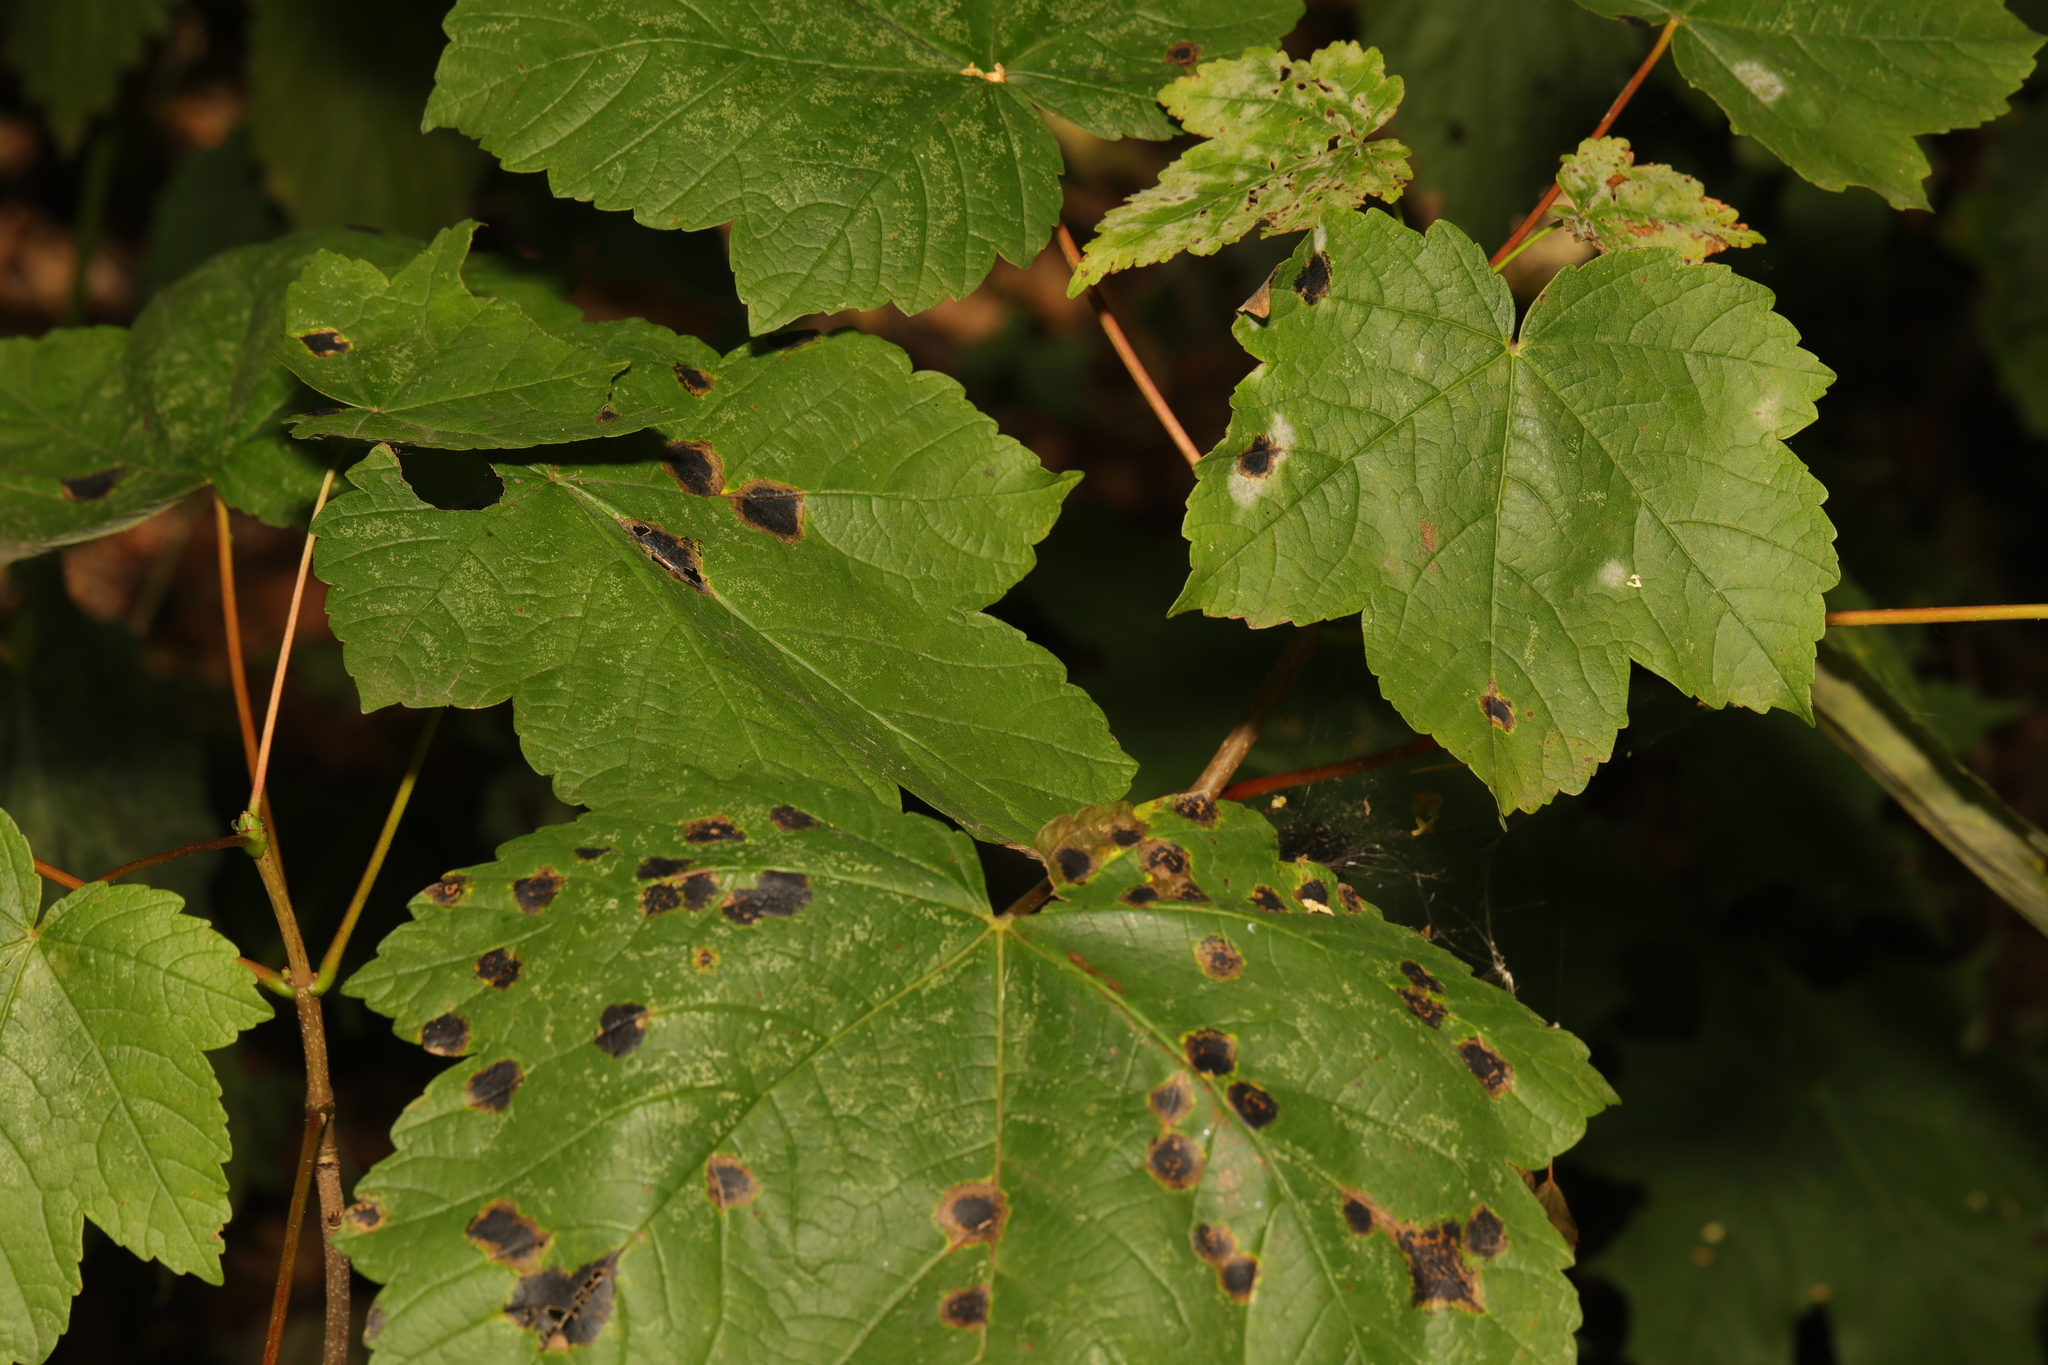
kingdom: Plantae
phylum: Tracheophyta
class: Magnoliopsida
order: Sapindales
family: Sapindaceae
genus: Acer
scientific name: Acer pseudoplatanus
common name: Sycamore
